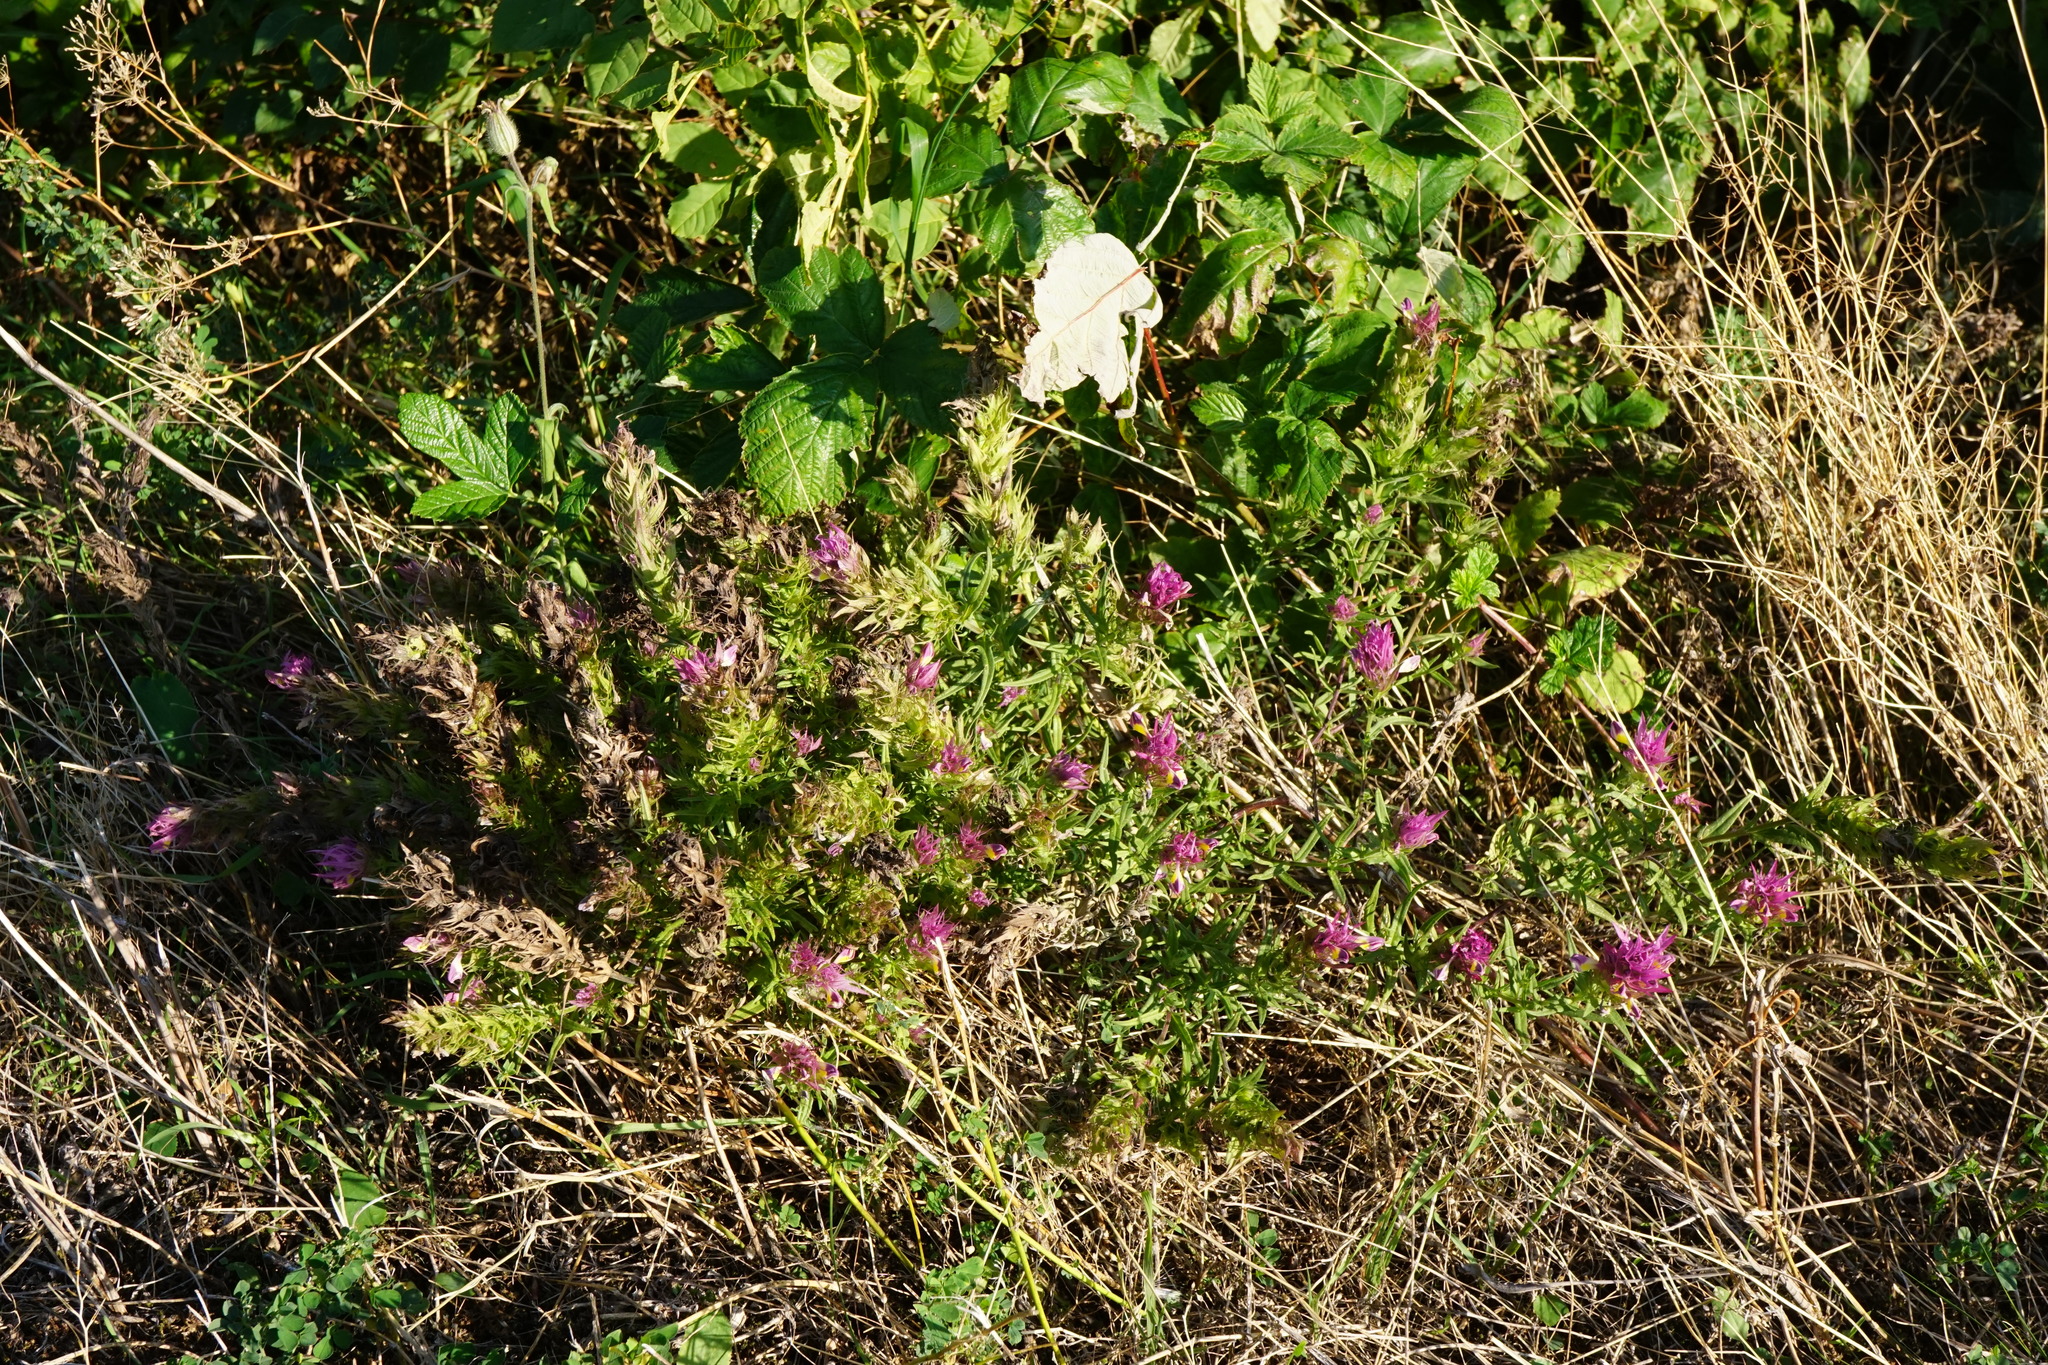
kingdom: Plantae
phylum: Tracheophyta
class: Magnoliopsida
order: Lamiales
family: Orobanchaceae
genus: Melampyrum
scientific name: Melampyrum arvense
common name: Field cow-wheat
